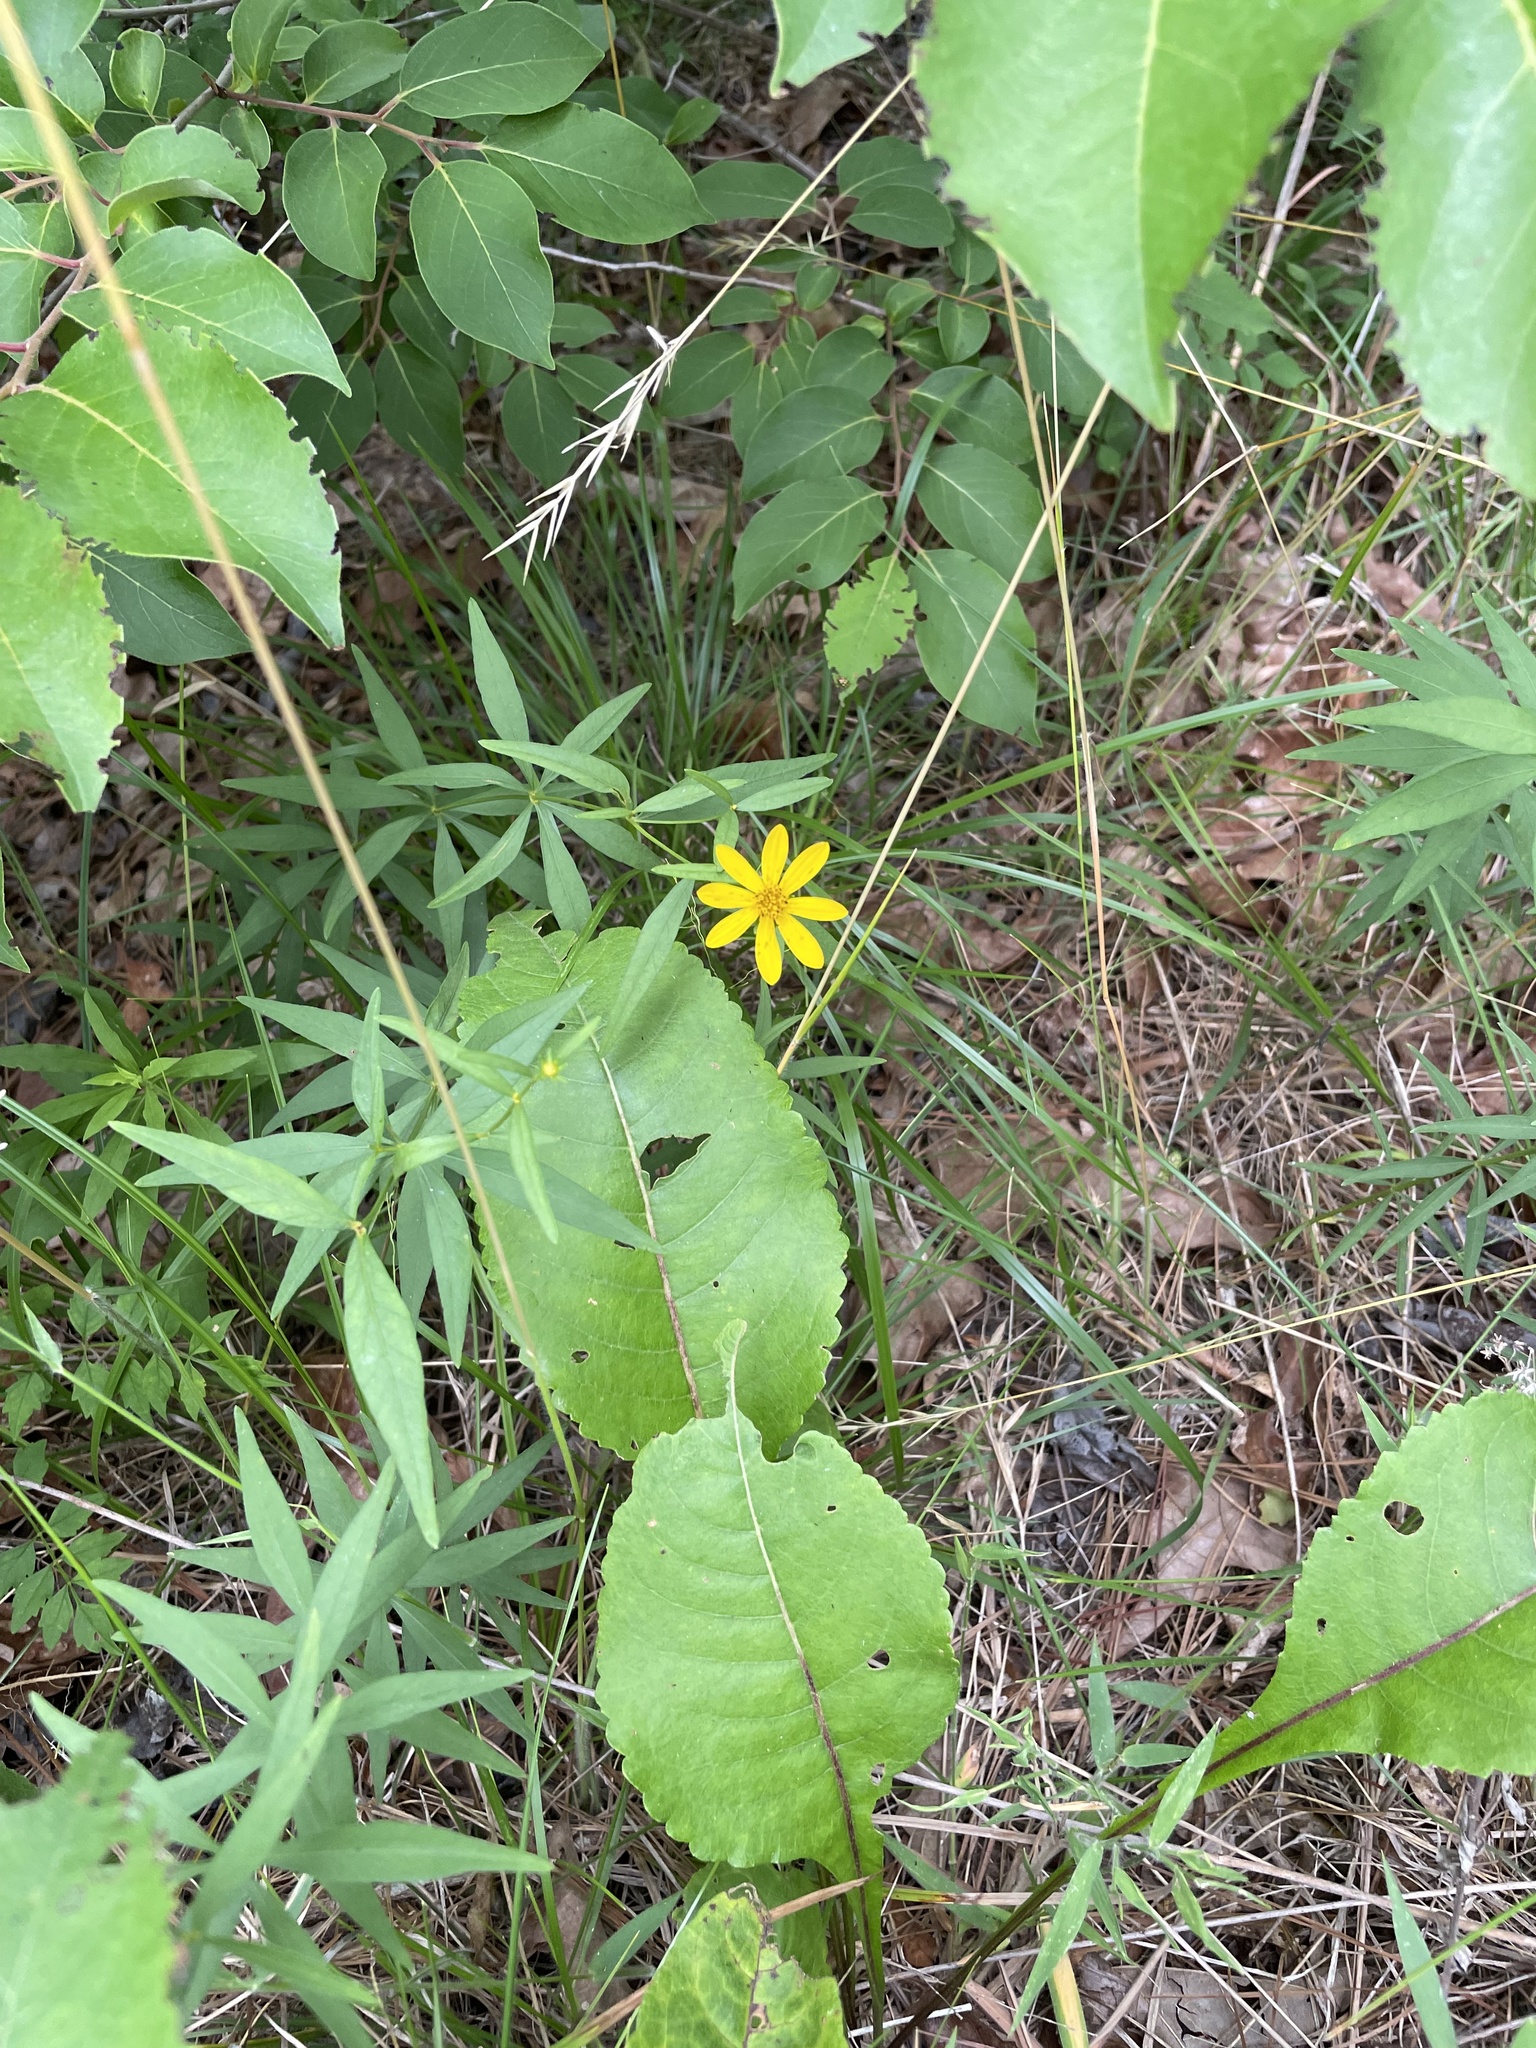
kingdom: Plantae
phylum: Tracheophyta
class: Magnoliopsida
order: Asterales
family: Asteraceae
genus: Coreopsis
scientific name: Coreopsis major
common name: Forest tickseed
